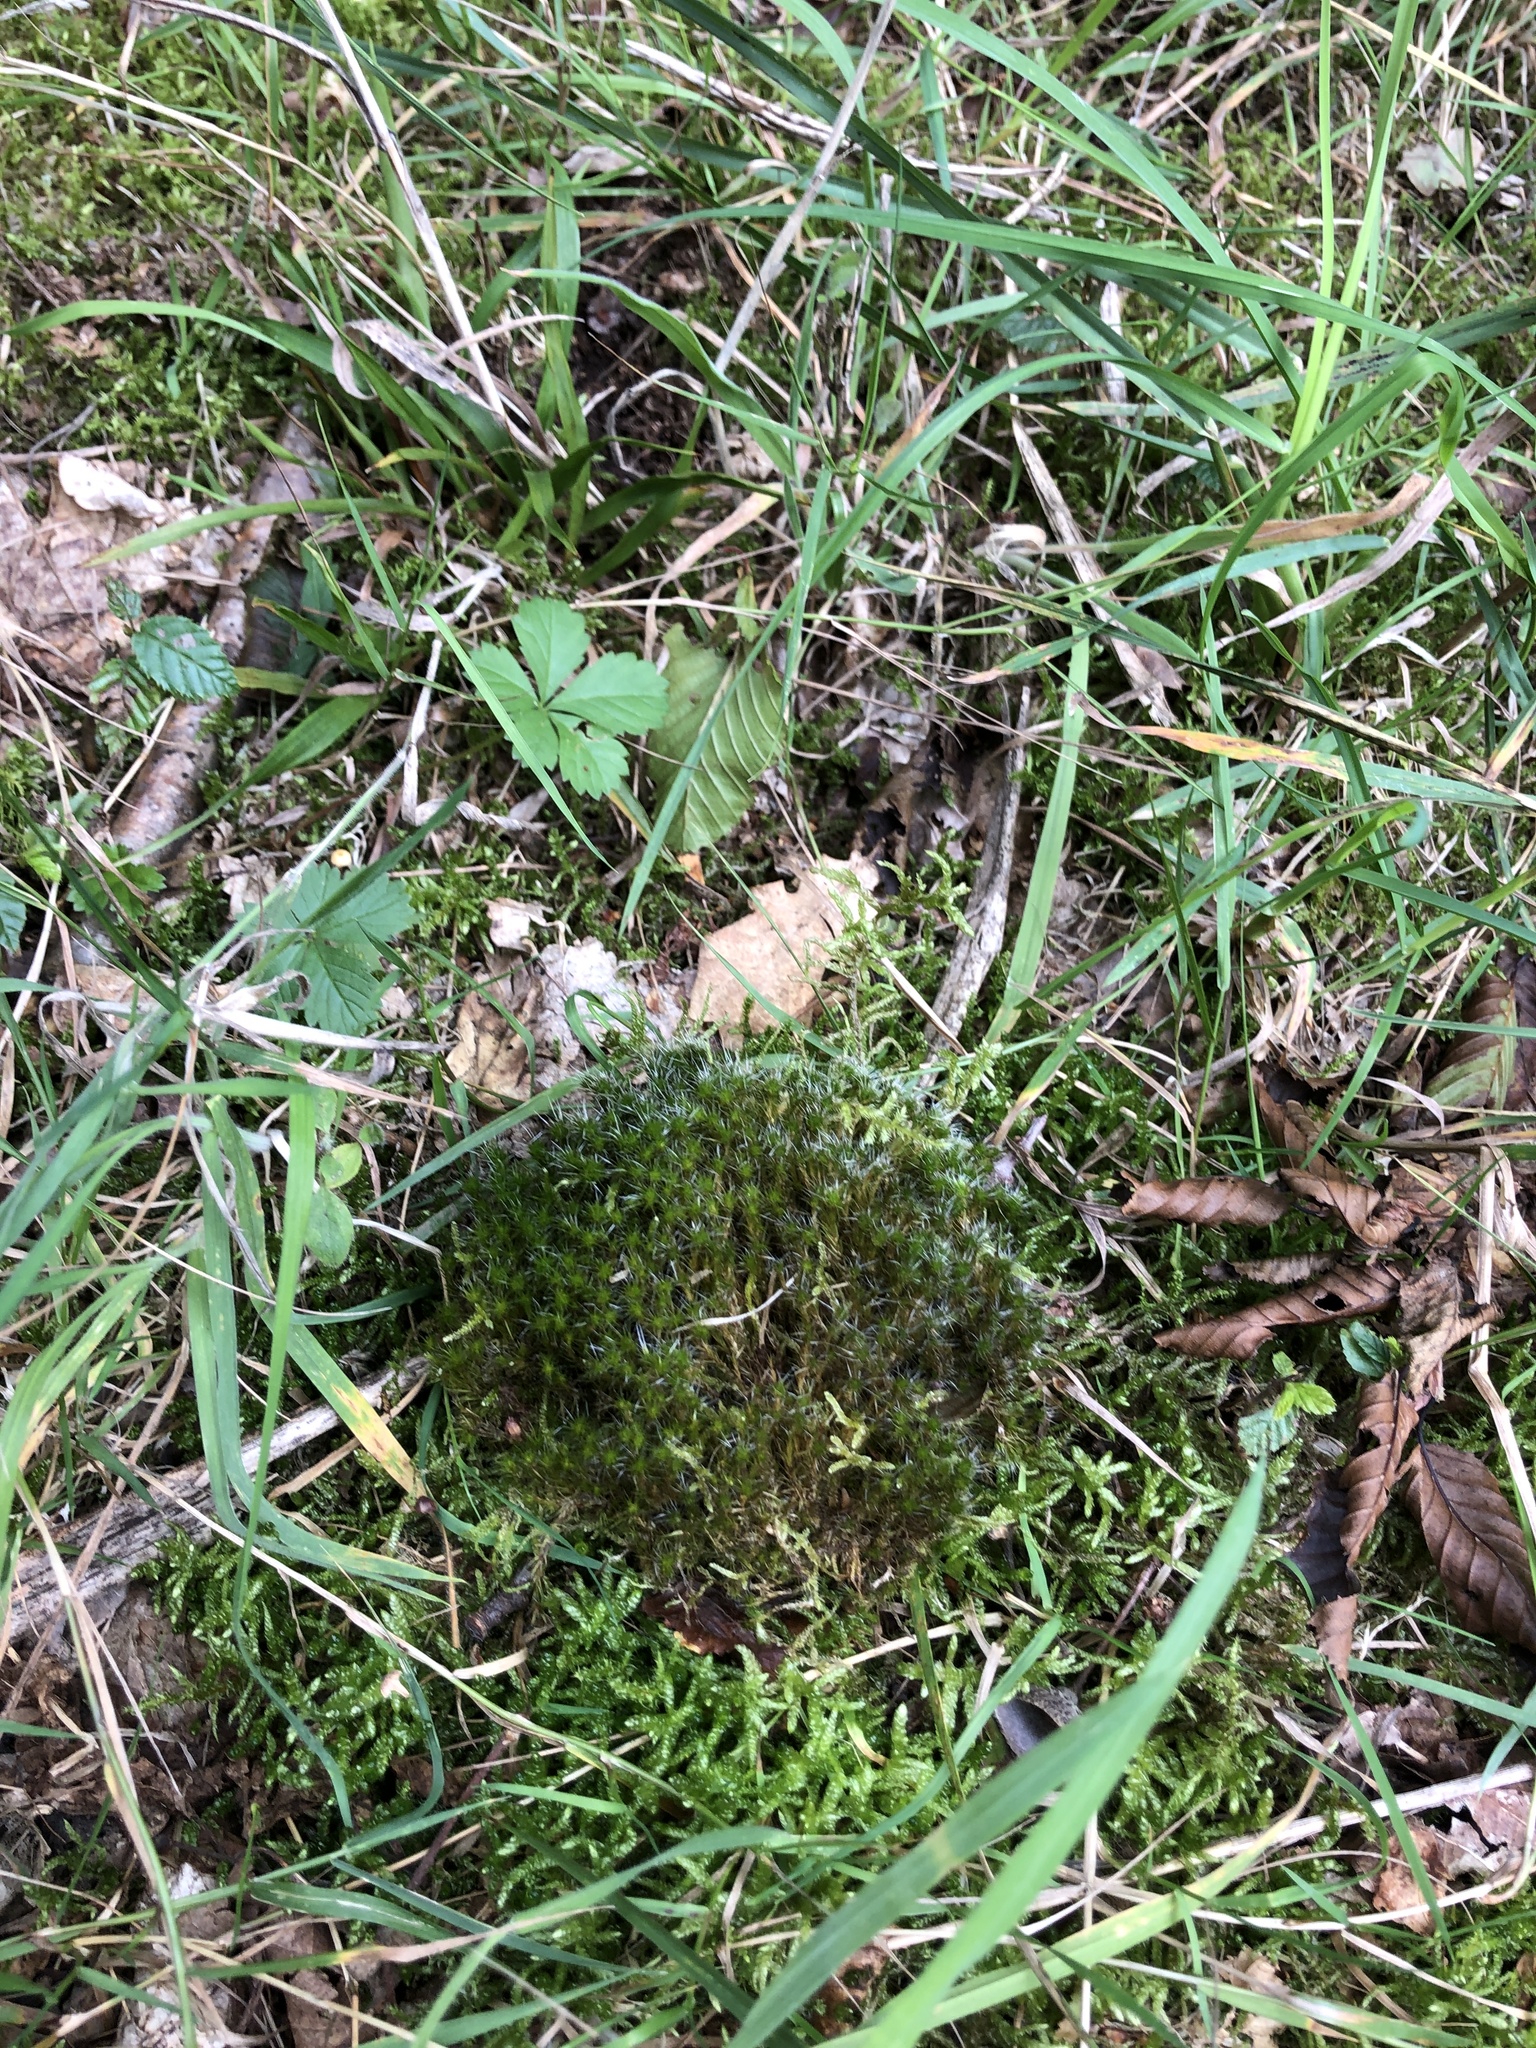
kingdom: Plantae
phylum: Bryophyta
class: Bryopsida
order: Dicranales
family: Leucobryaceae
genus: Campylopus
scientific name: Campylopus introflexus
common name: Heath star moss
